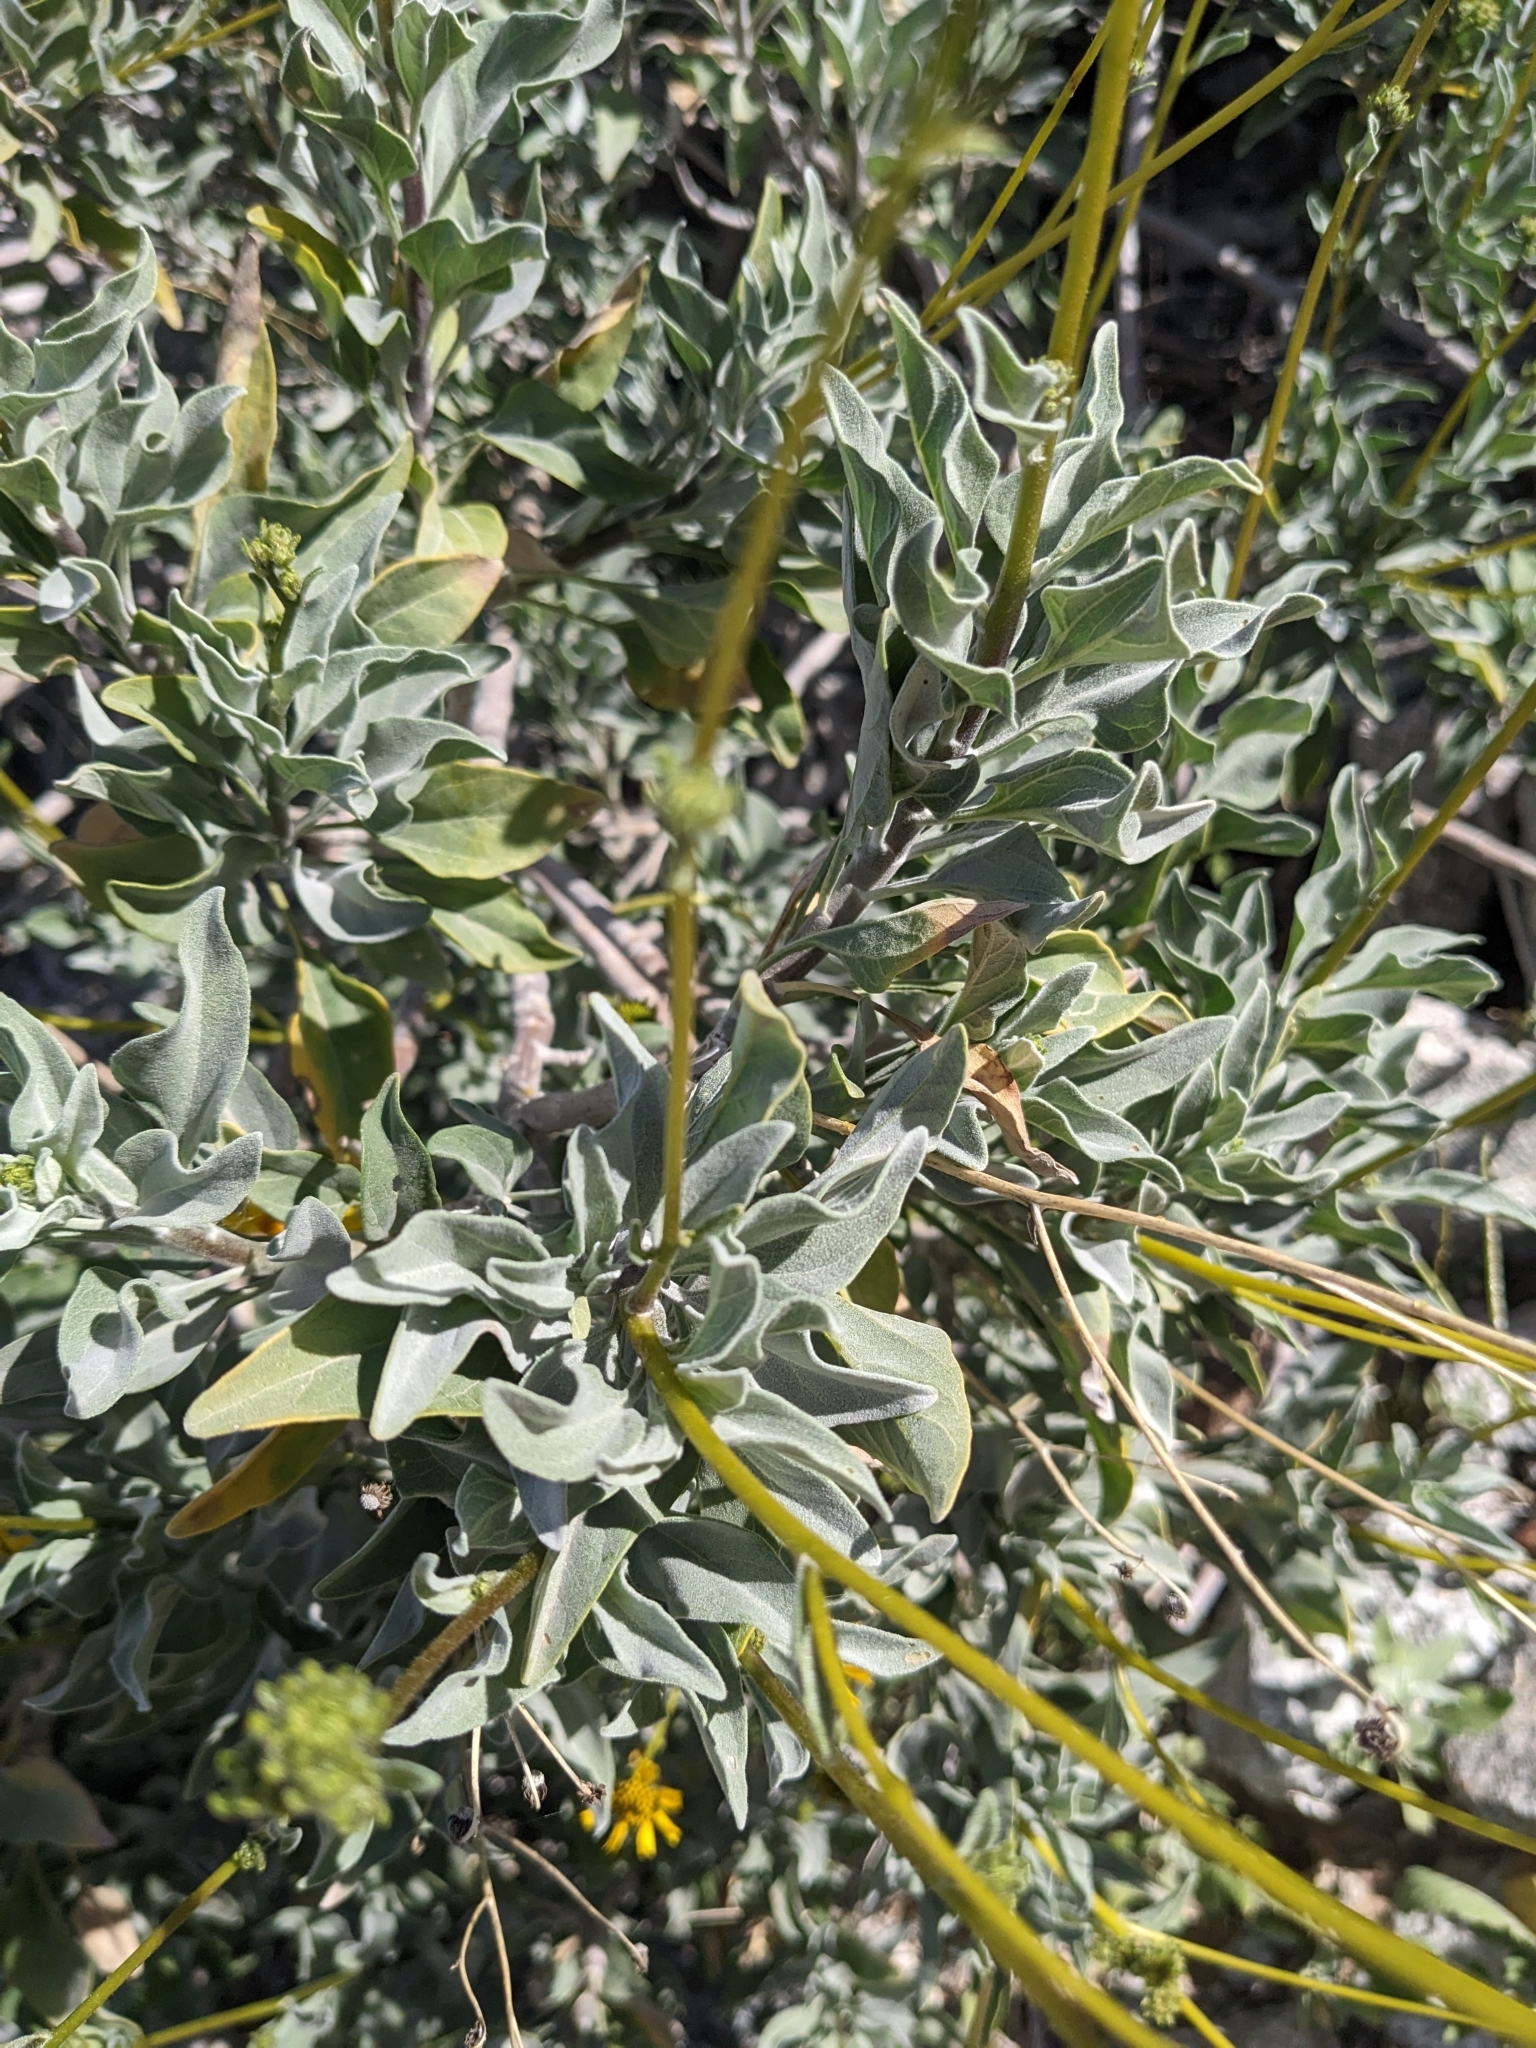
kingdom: Plantae
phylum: Tracheophyta
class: Magnoliopsida
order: Asterales
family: Asteraceae
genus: Encelia
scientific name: Encelia farinosa
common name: Brittlebush
